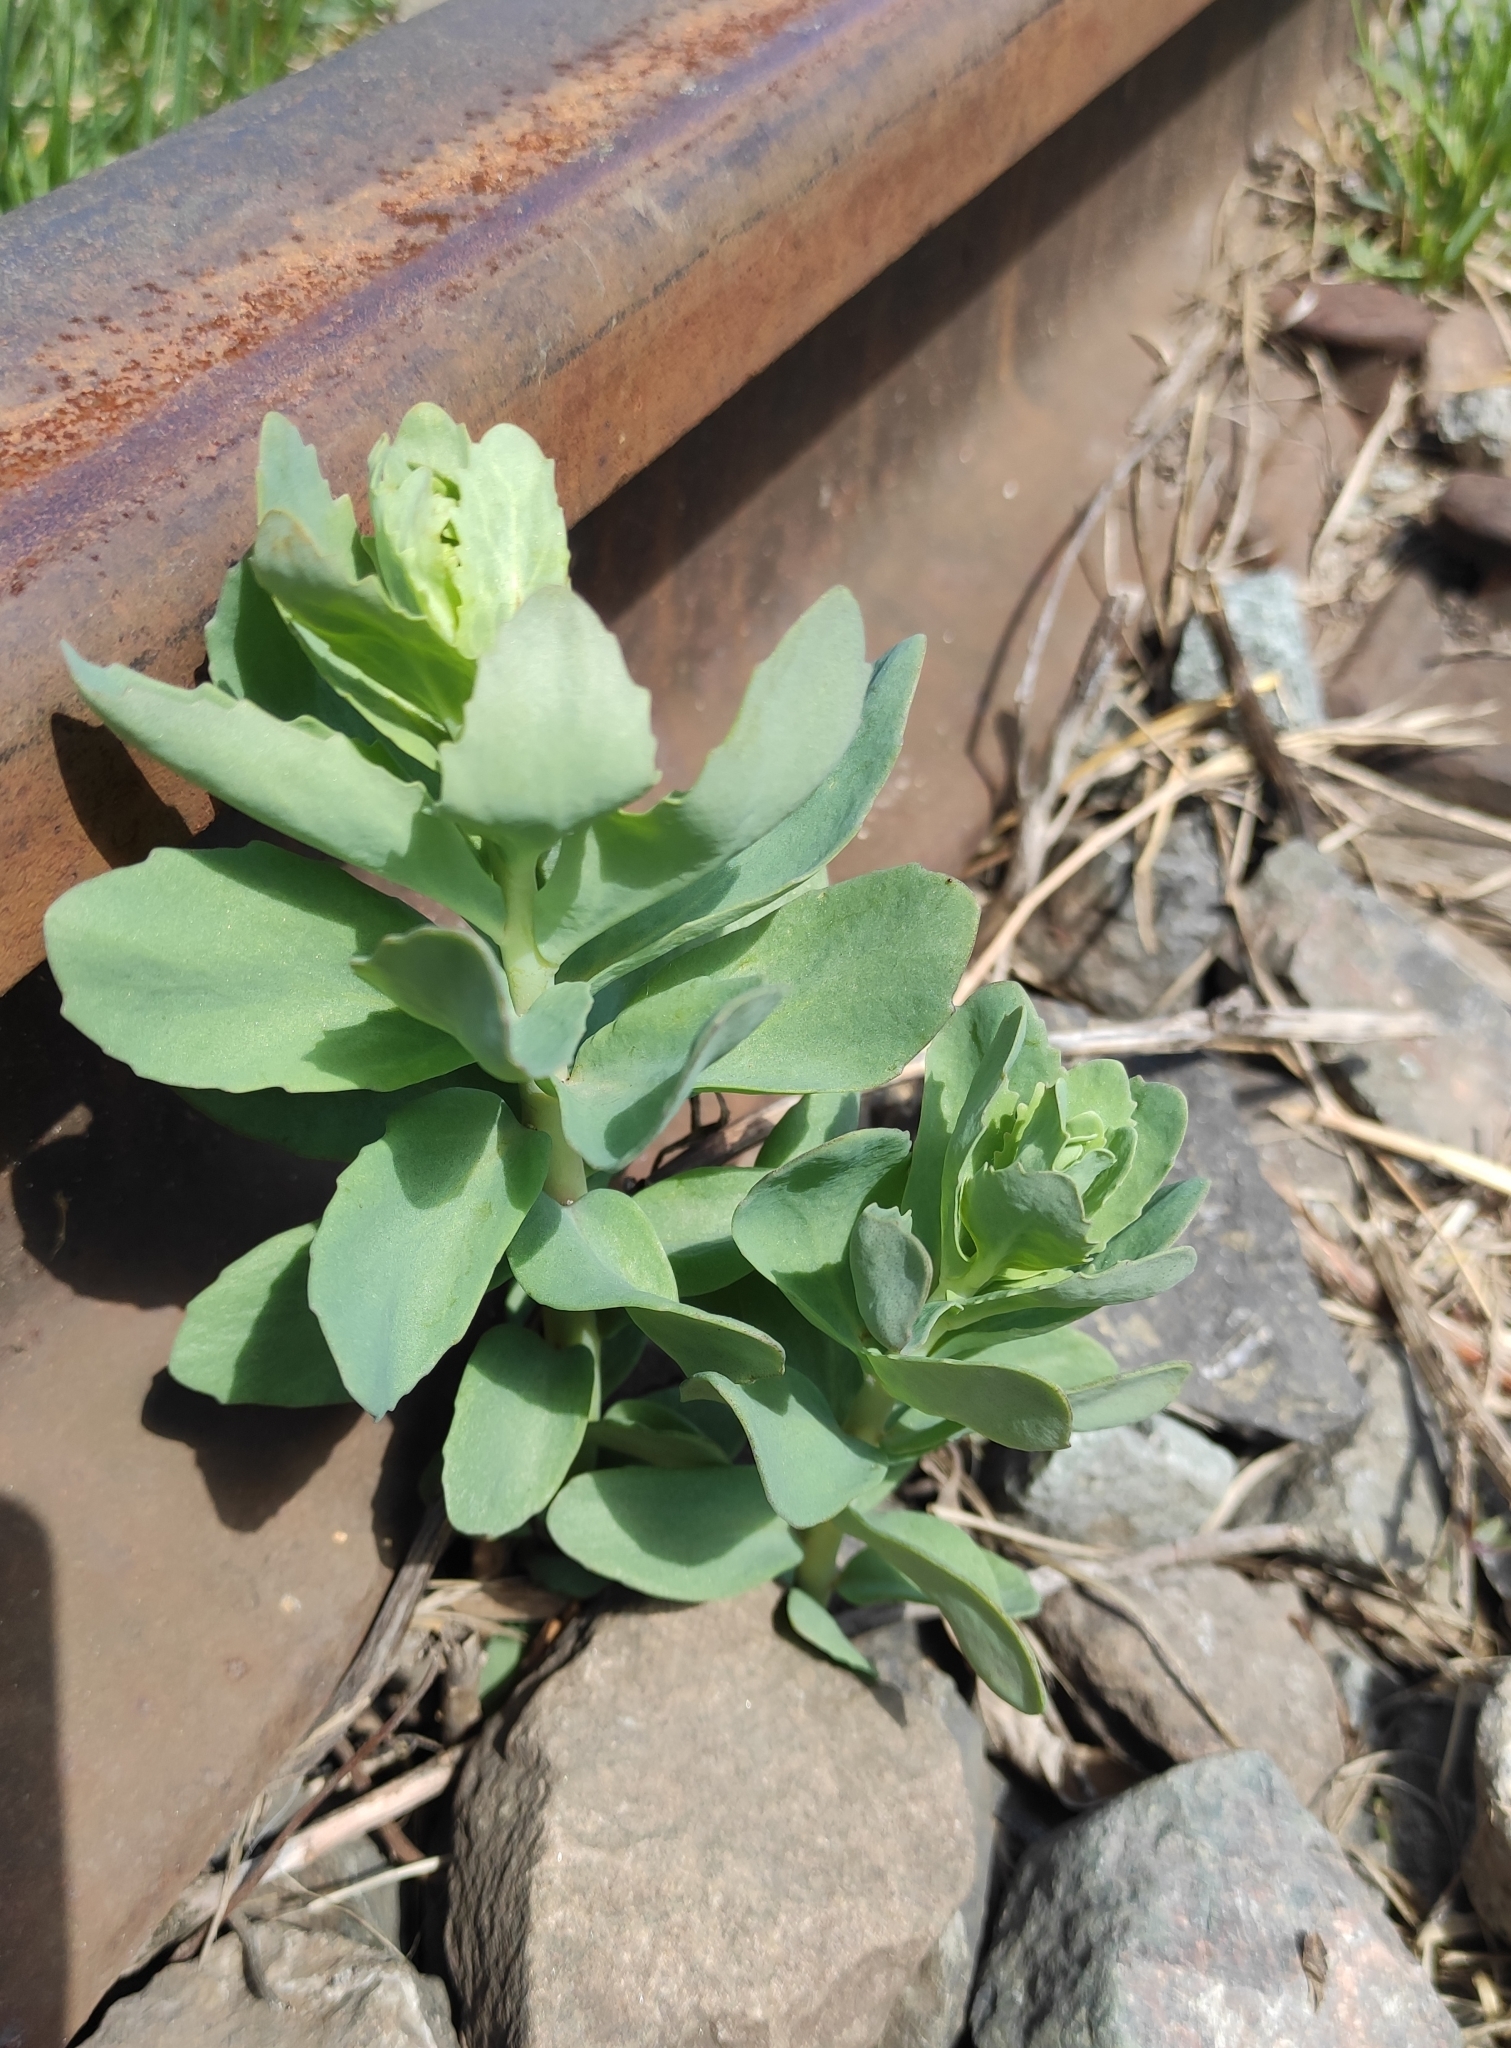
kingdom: Plantae
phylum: Tracheophyta
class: Magnoliopsida
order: Saxifragales
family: Crassulaceae
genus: Hylotelephium
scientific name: Hylotelephium telephium
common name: Live-forever
